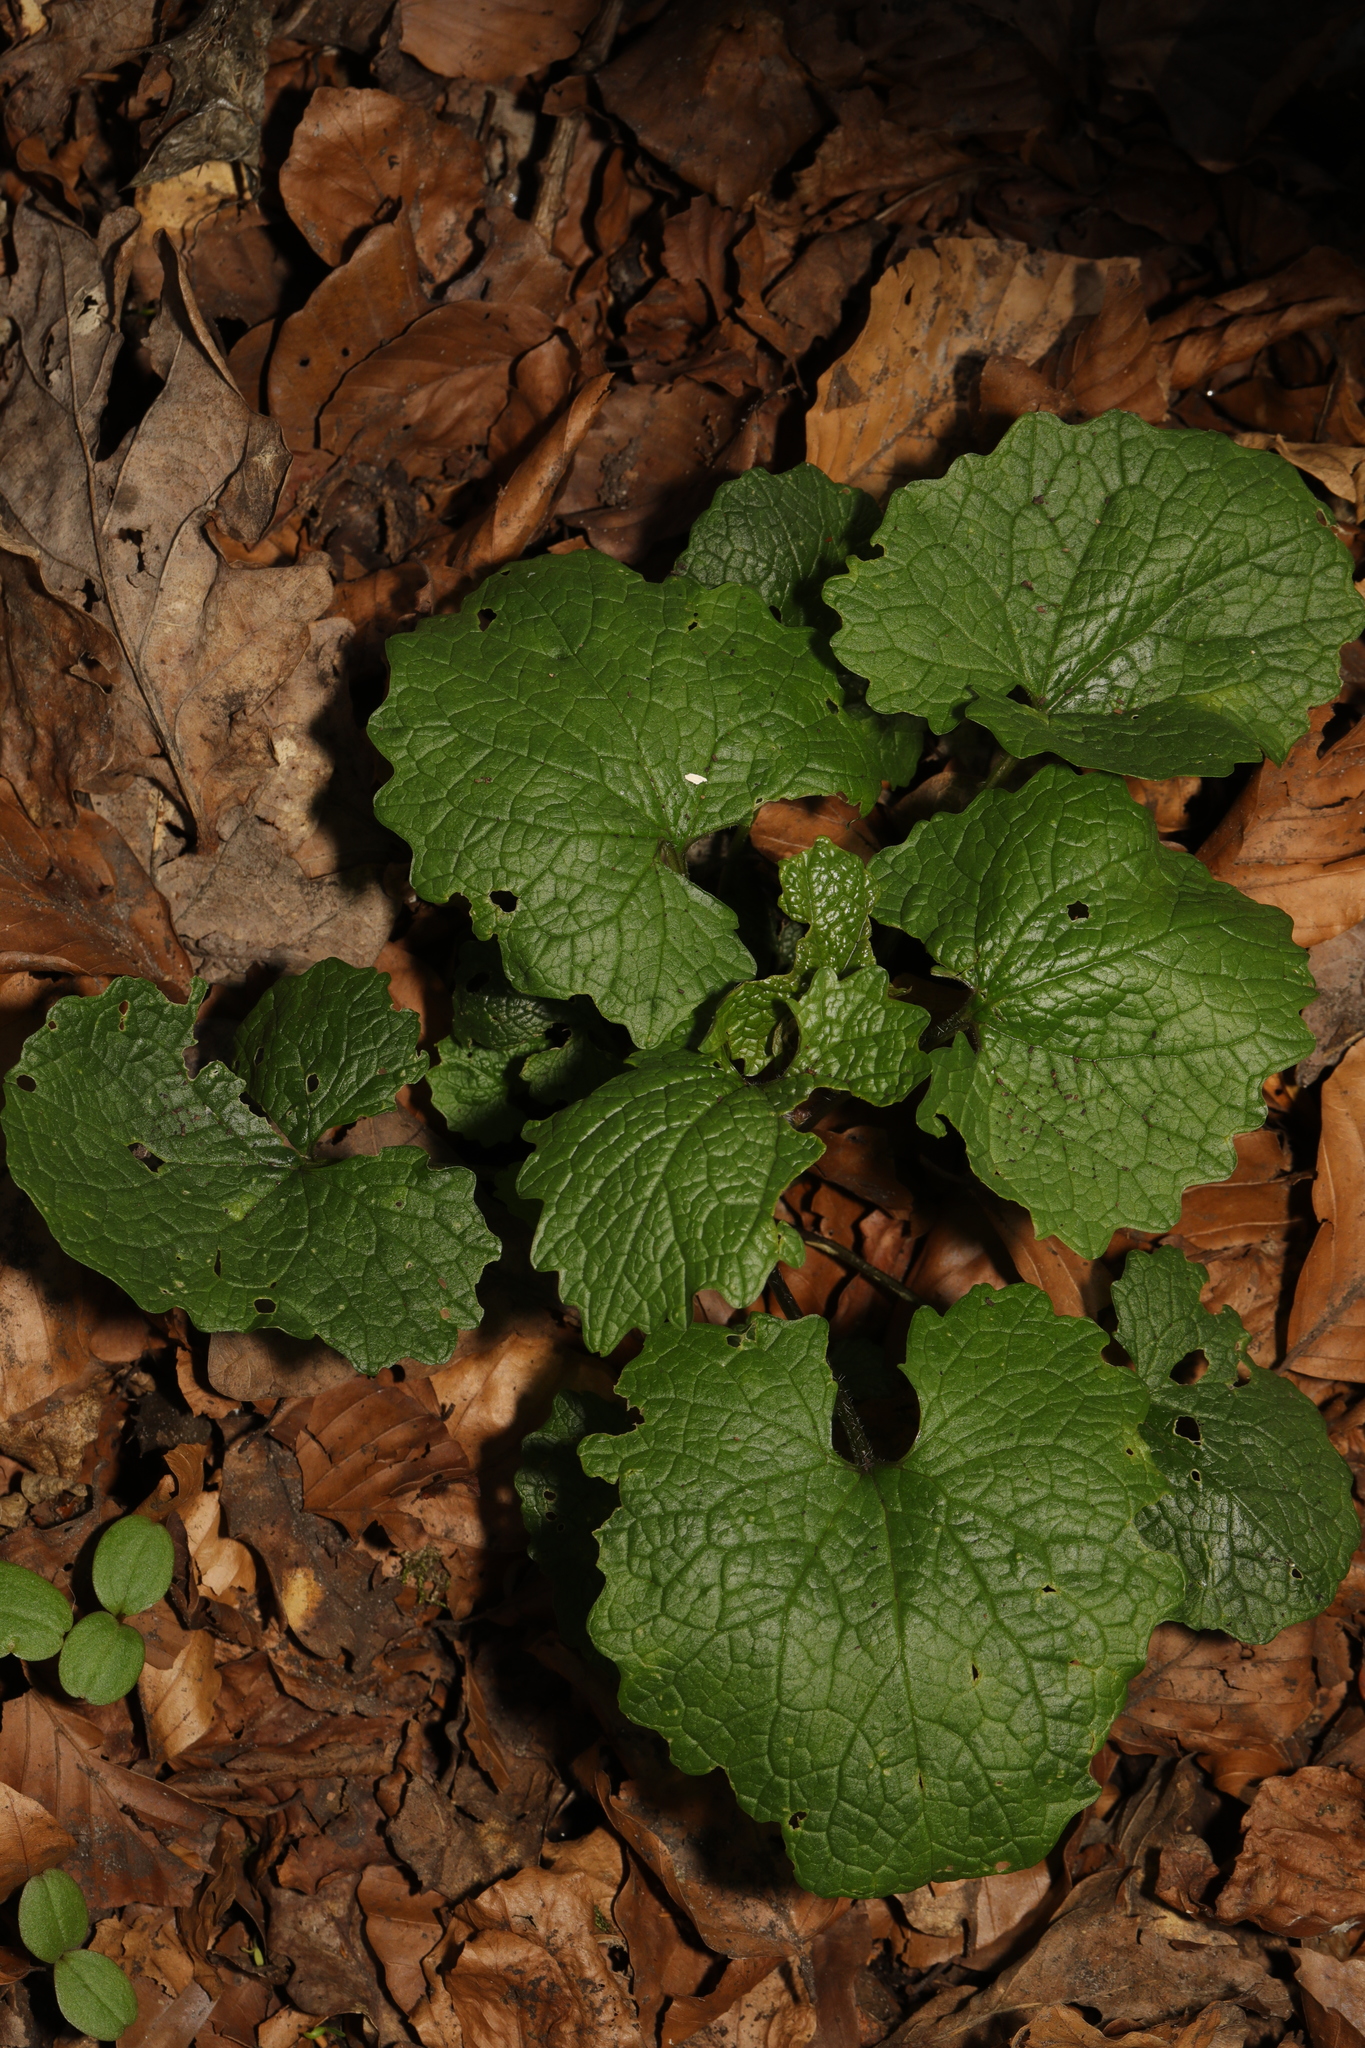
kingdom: Plantae
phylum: Tracheophyta
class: Magnoliopsida
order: Brassicales
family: Brassicaceae
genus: Alliaria
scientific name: Alliaria petiolata
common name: Garlic mustard
